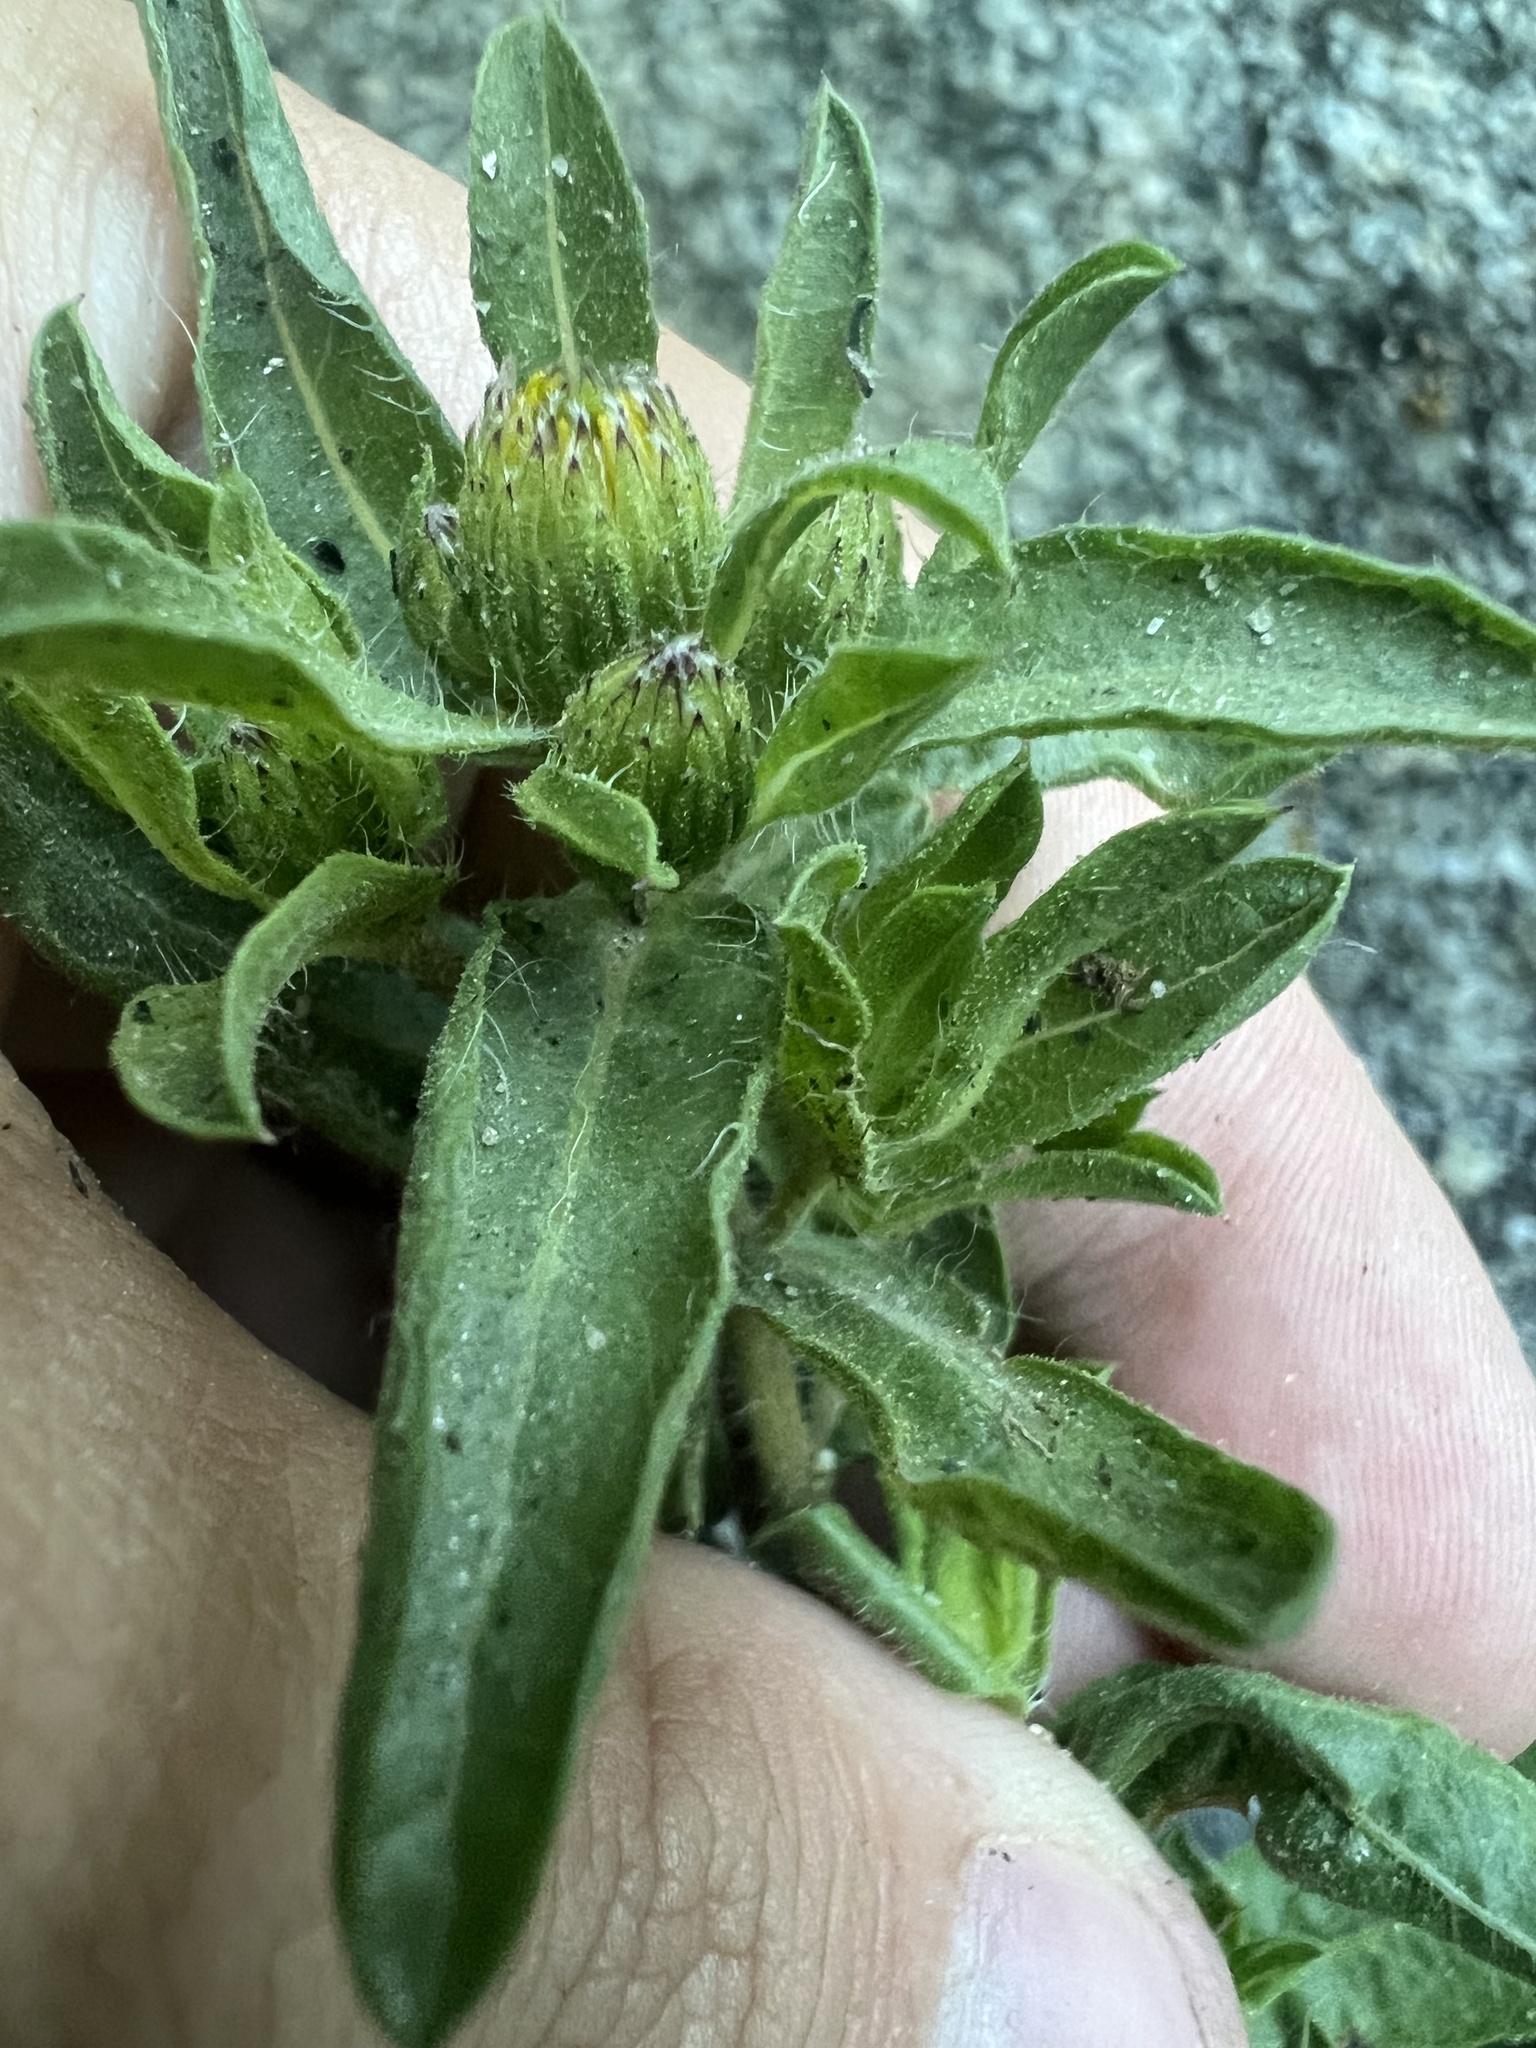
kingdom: Plantae
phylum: Tracheophyta
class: Magnoliopsida
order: Asterales
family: Asteraceae
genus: Heterotheca
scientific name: Heterotheca resinolens
